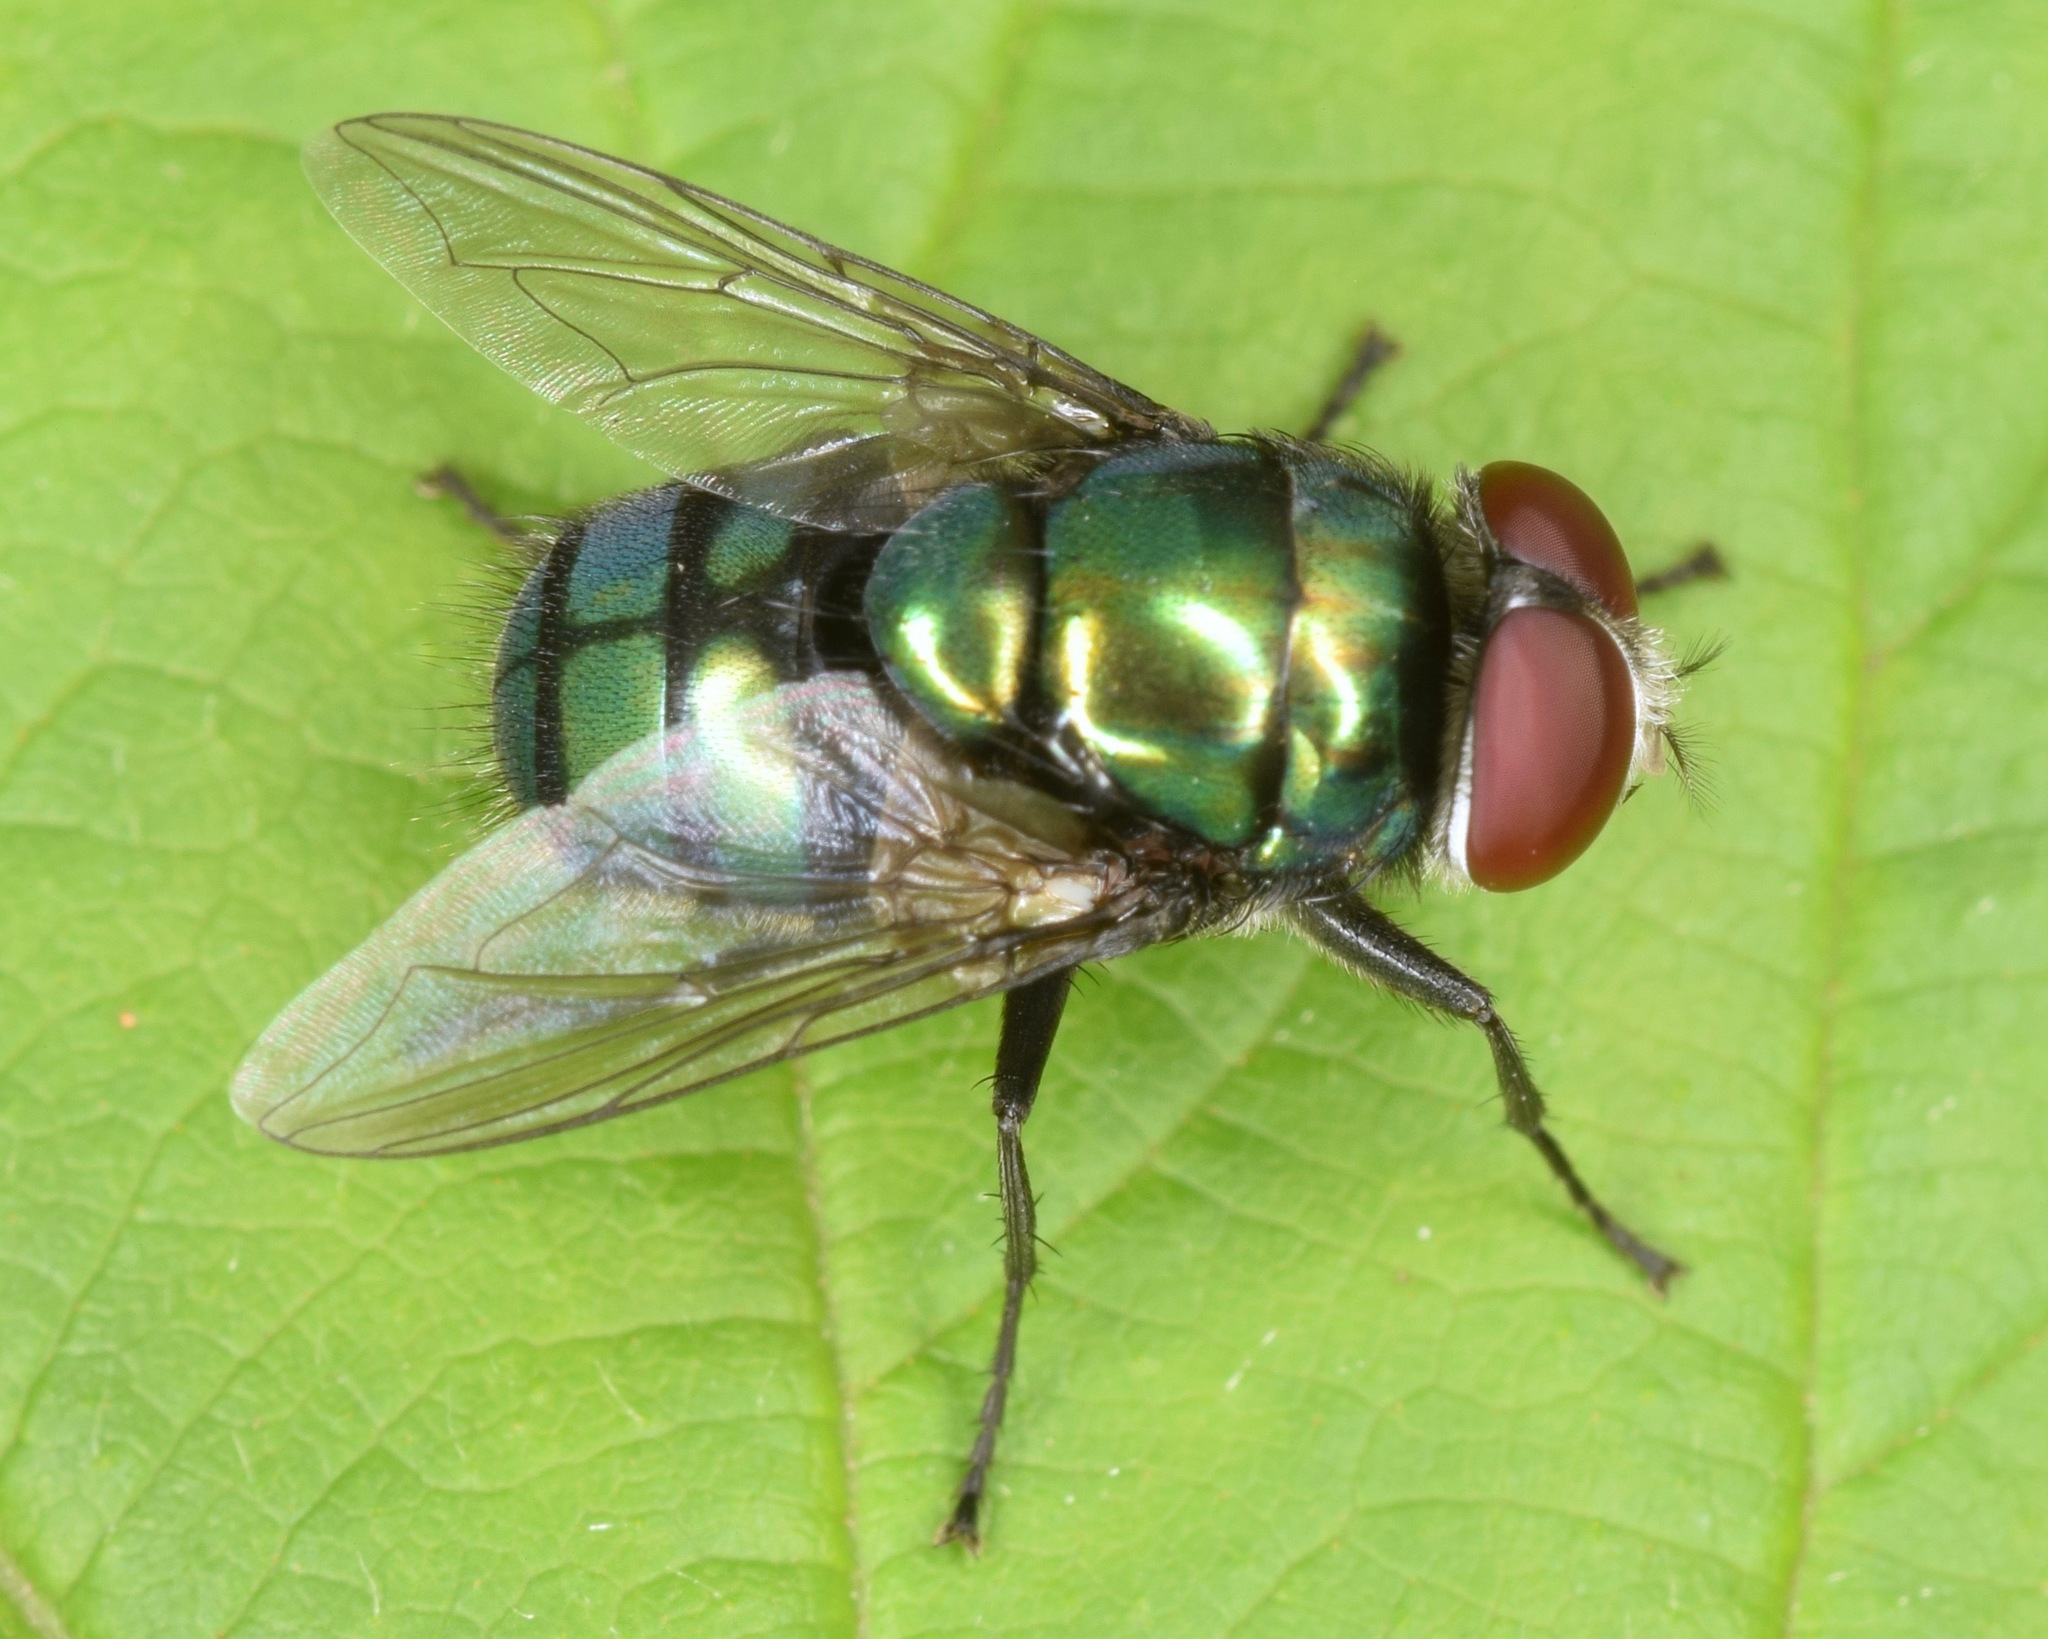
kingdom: Animalia
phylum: Arthropoda
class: Insecta
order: Diptera
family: Calliphoridae
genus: Chrysomya
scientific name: Chrysomya rufifacies
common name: Blow fly
